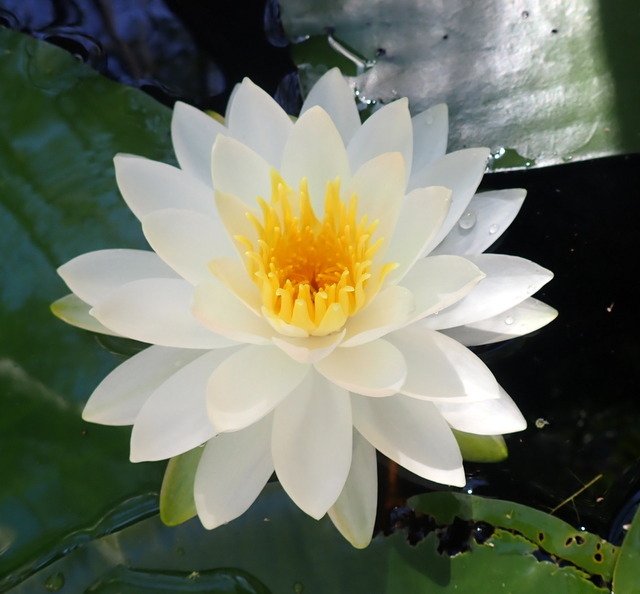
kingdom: Plantae
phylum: Tracheophyta
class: Magnoliopsida
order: Nymphaeales
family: Nymphaeaceae
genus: Nymphaea
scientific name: Nymphaea odorata
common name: Fragrant water-lily
